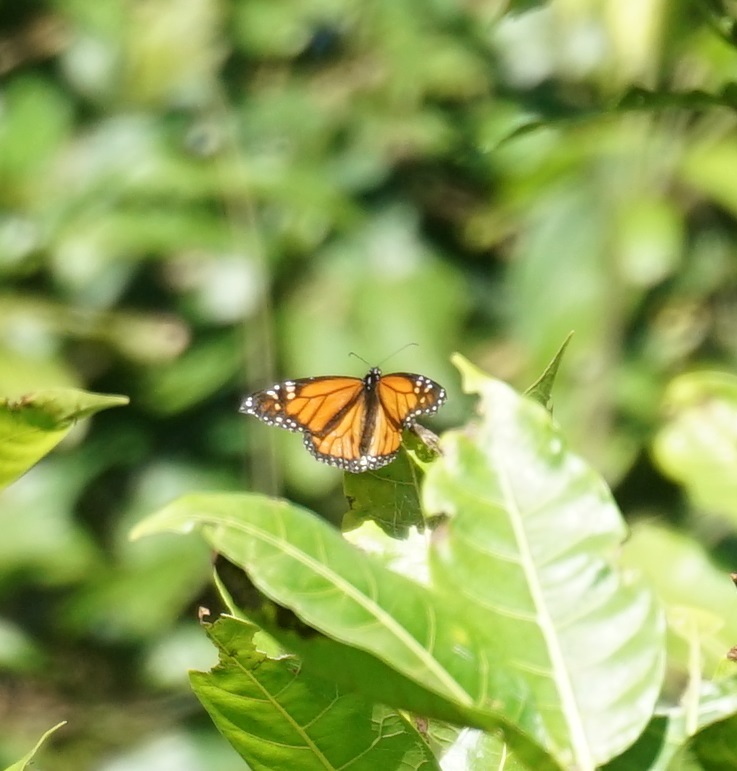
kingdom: Animalia
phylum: Arthropoda
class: Insecta
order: Lepidoptera
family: Nymphalidae
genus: Danaus
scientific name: Danaus plexippus
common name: Monarch
